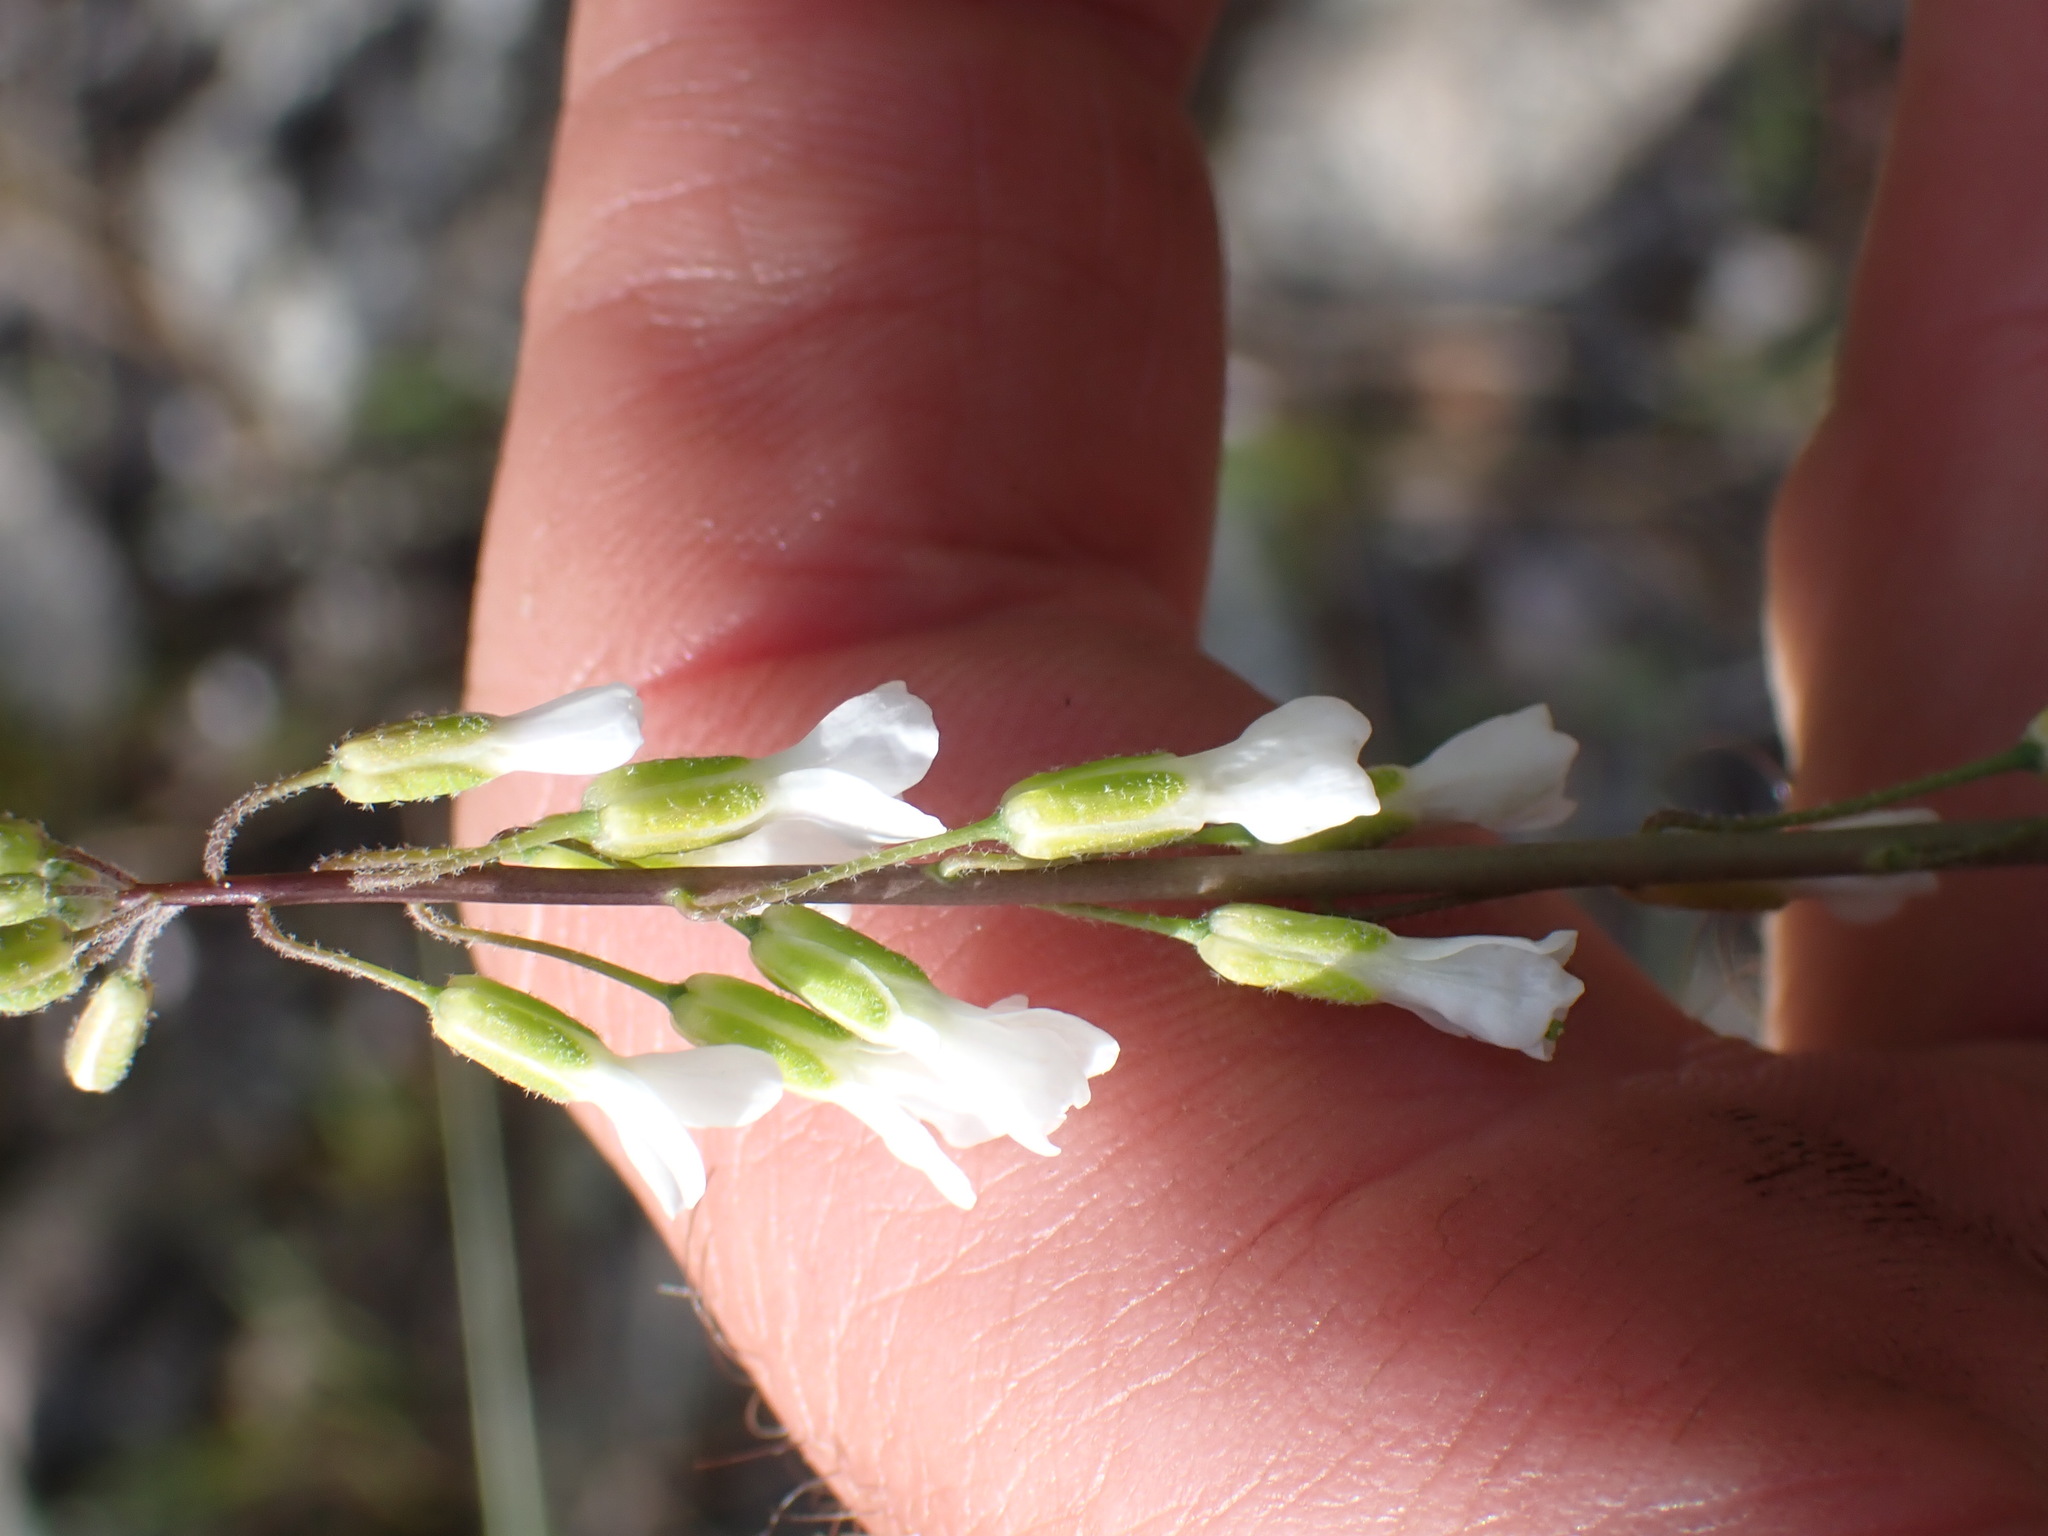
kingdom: Plantae
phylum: Tracheophyta
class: Magnoliopsida
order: Brassicales
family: Brassicaceae
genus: Boechera
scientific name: Boechera retrofracta
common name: Dangling suncress
